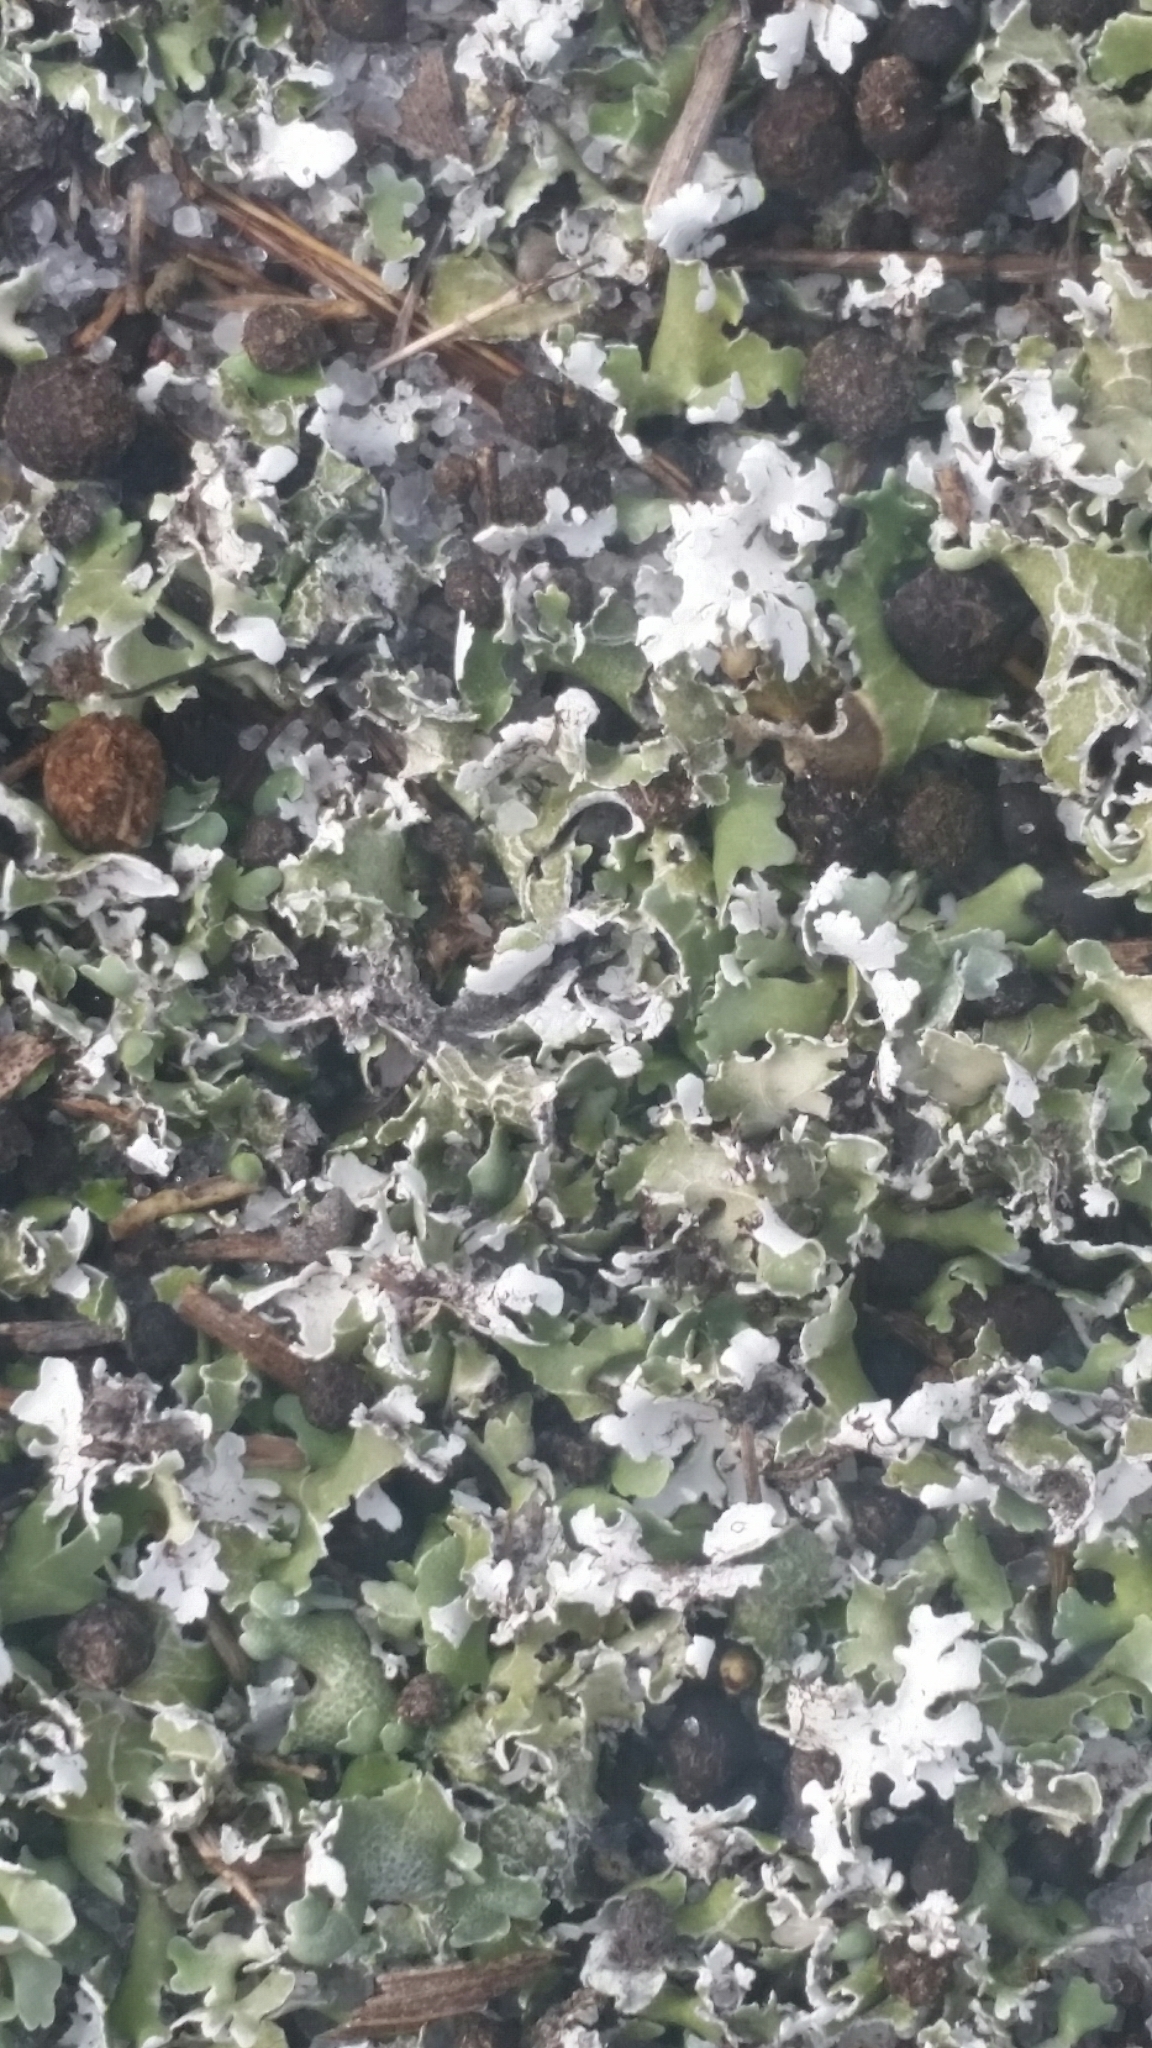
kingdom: Fungi
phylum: Ascomycota
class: Lecanoromycetes
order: Lecanorales
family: Cladoniaceae
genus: Cladonia
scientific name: Cladonia prostrata
